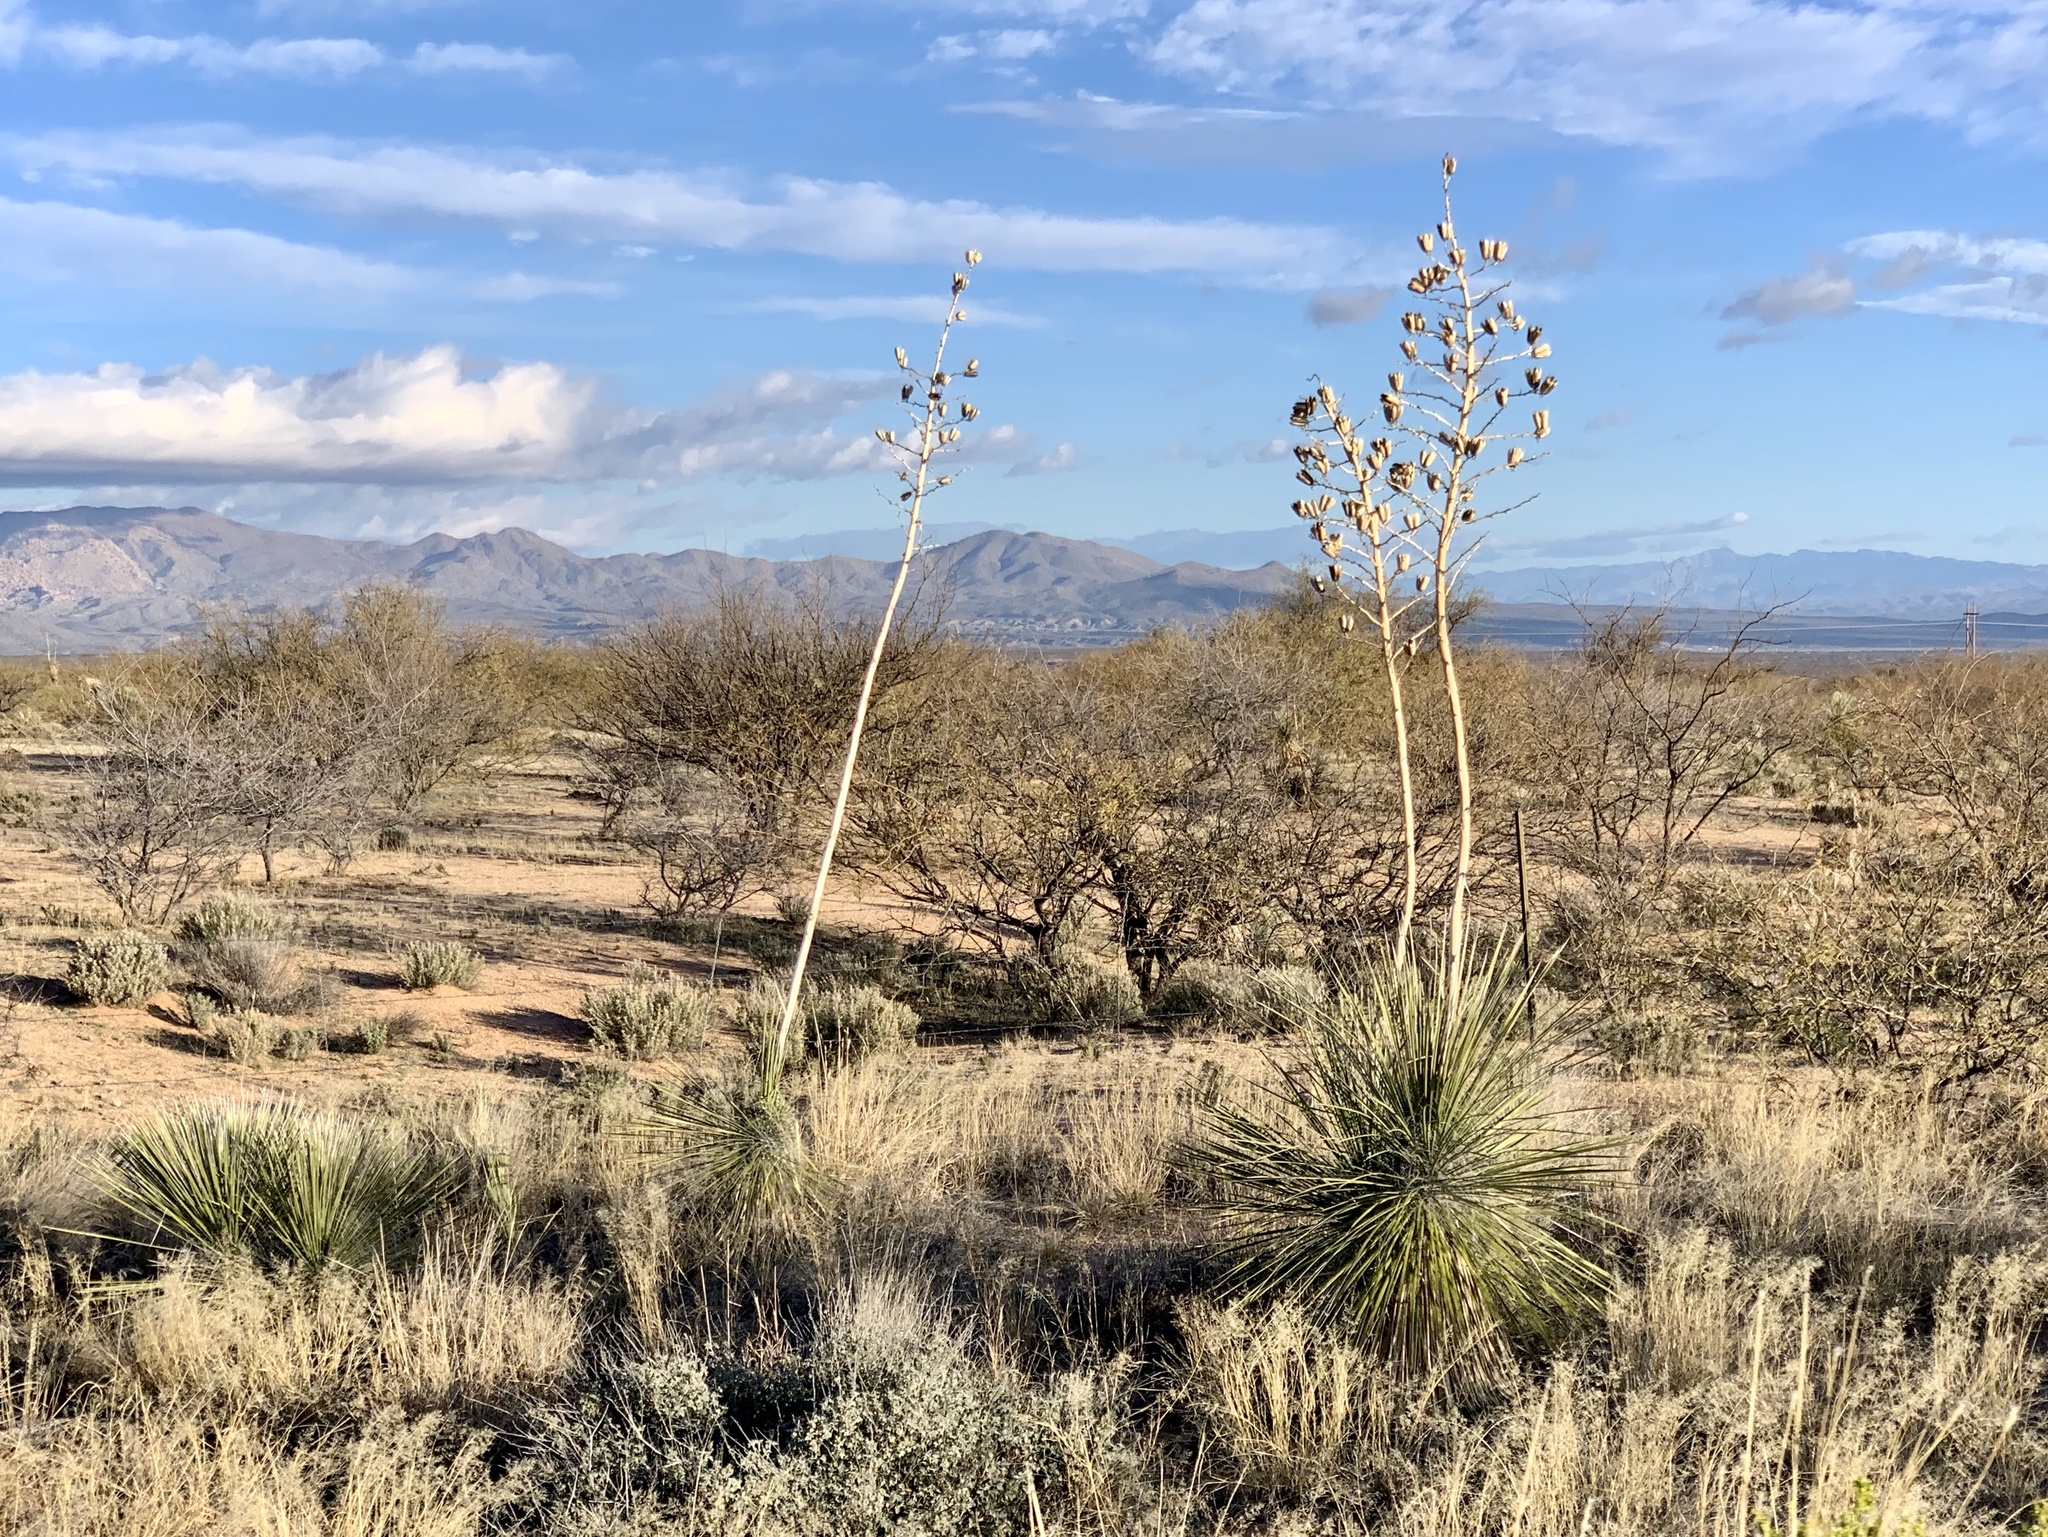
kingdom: Plantae
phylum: Tracheophyta
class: Liliopsida
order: Asparagales
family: Asparagaceae
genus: Yucca
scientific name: Yucca elata
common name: Palmella
